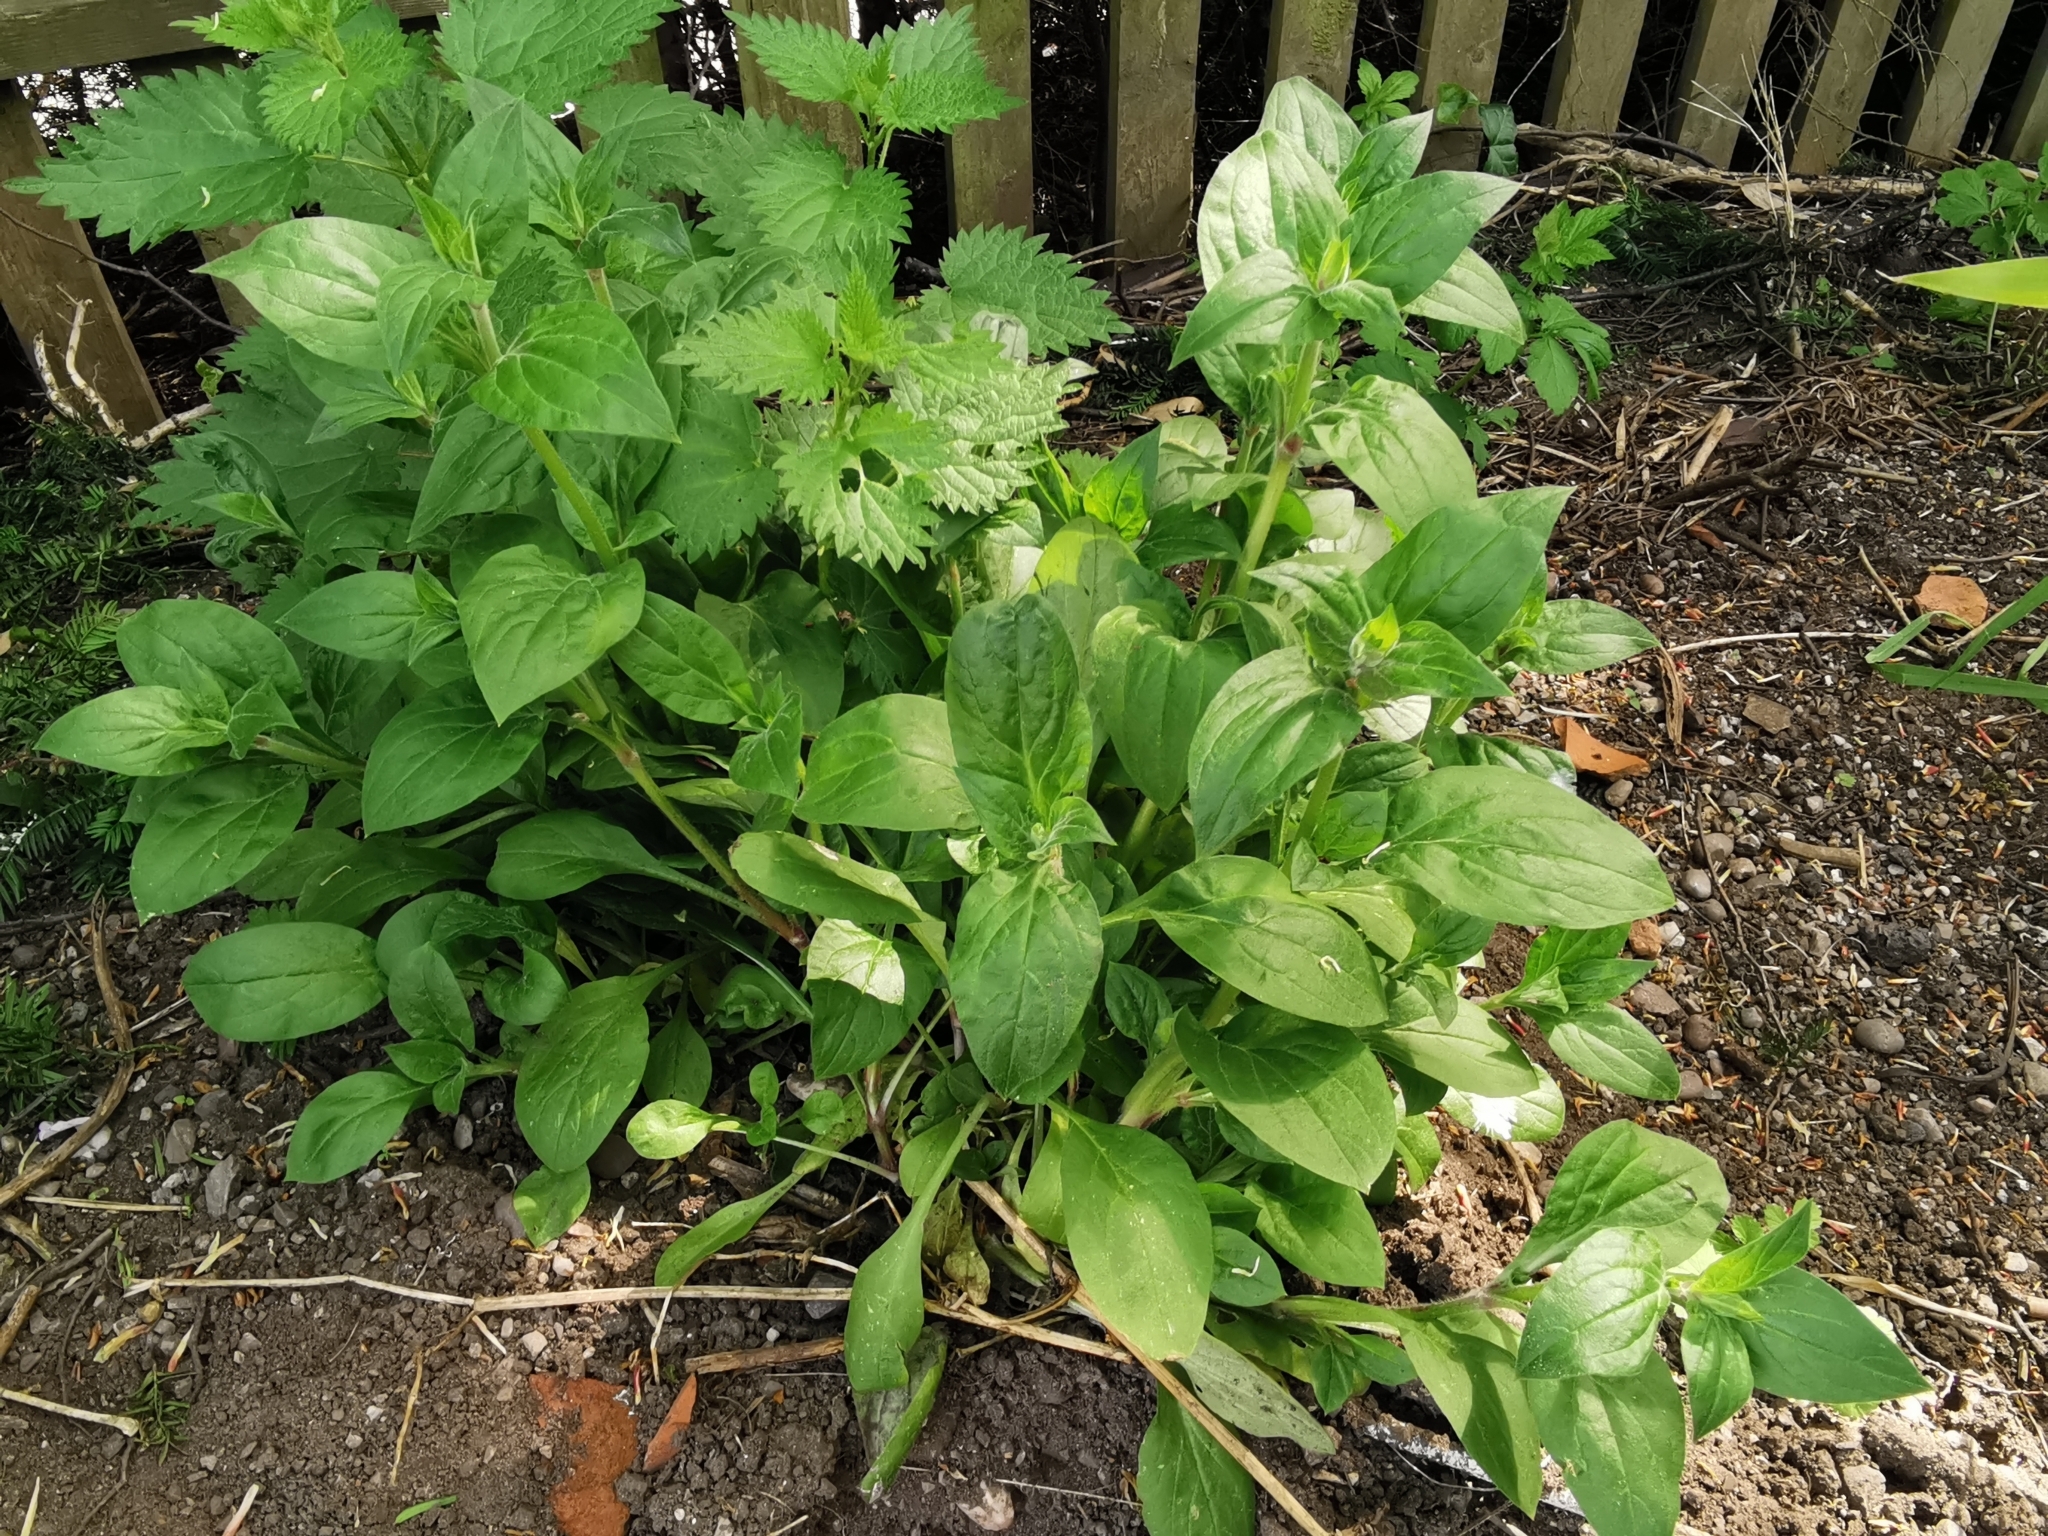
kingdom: Plantae
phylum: Tracheophyta
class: Magnoliopsida
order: Caryophyllales
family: Caryophyllaceae
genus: Silene
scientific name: Silene dioica
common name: Red campion
